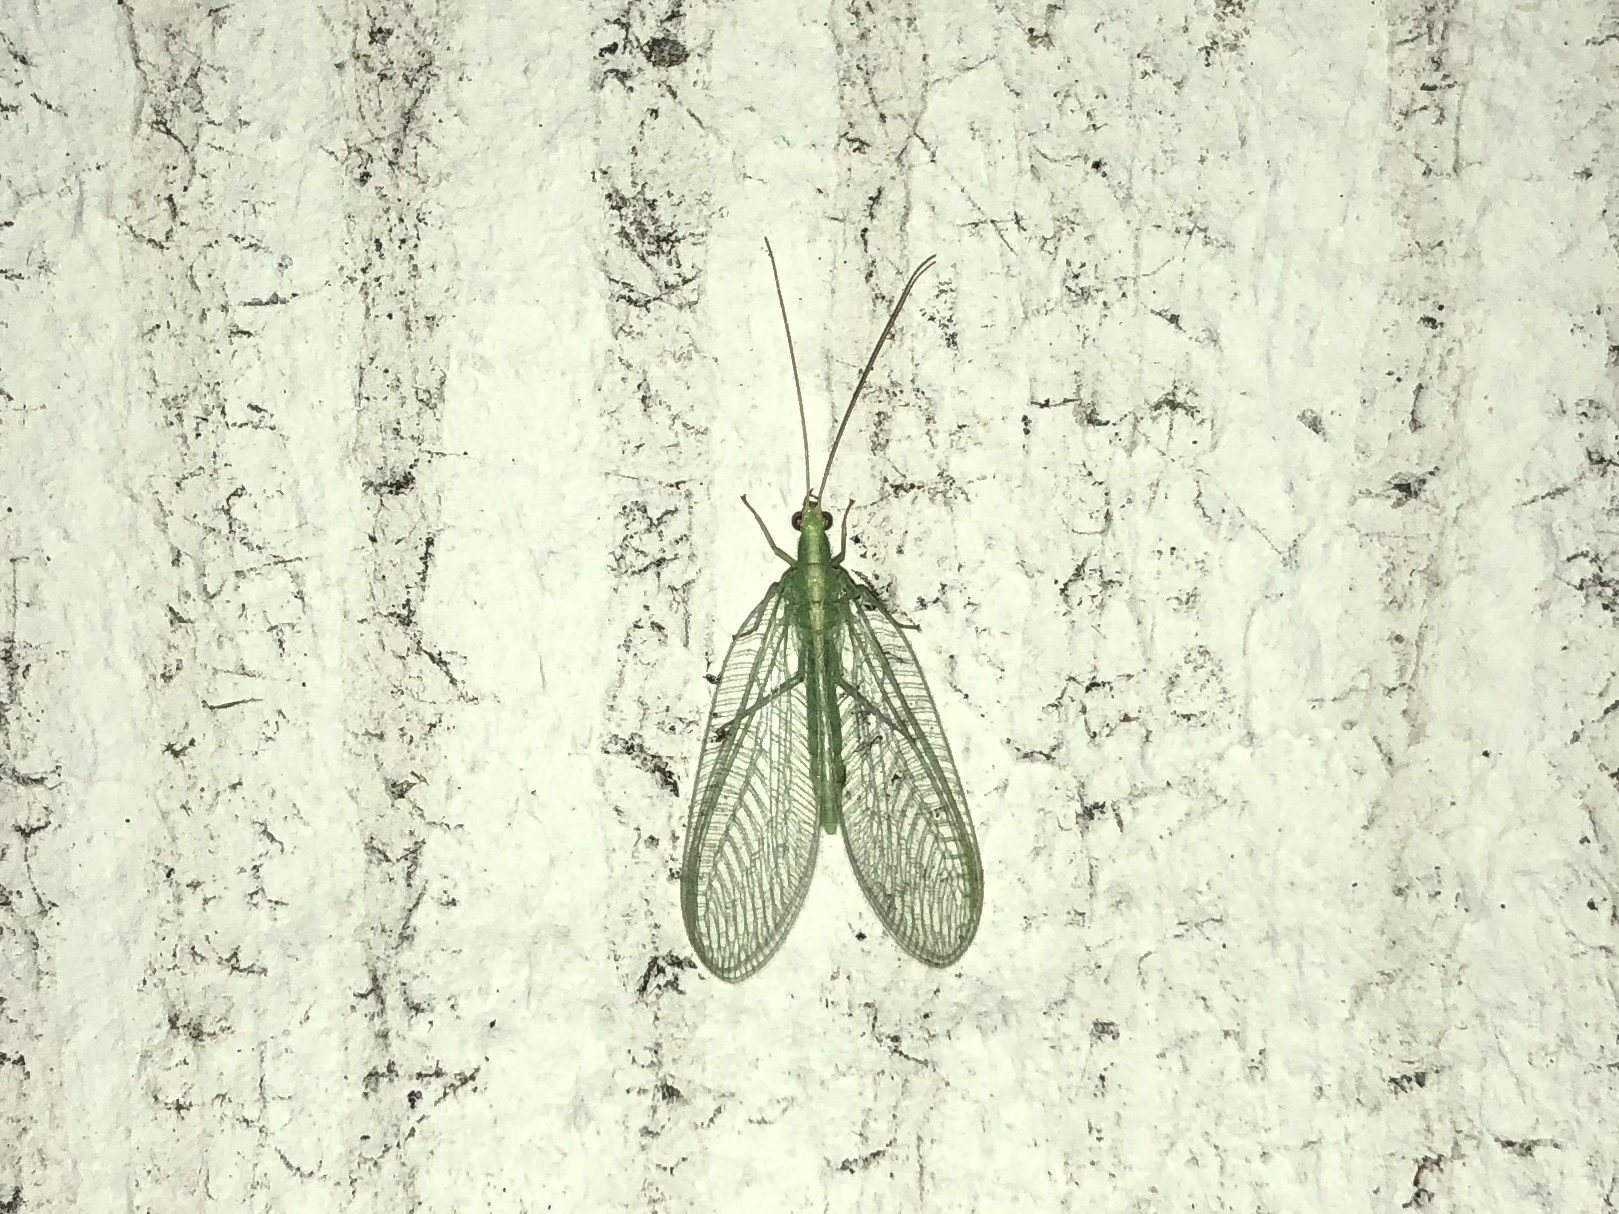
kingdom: Animalia
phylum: Arthropoda
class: Insecta
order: Neuroptera
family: Chrysopidae
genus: Chrysoperla
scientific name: Chrysoperla
